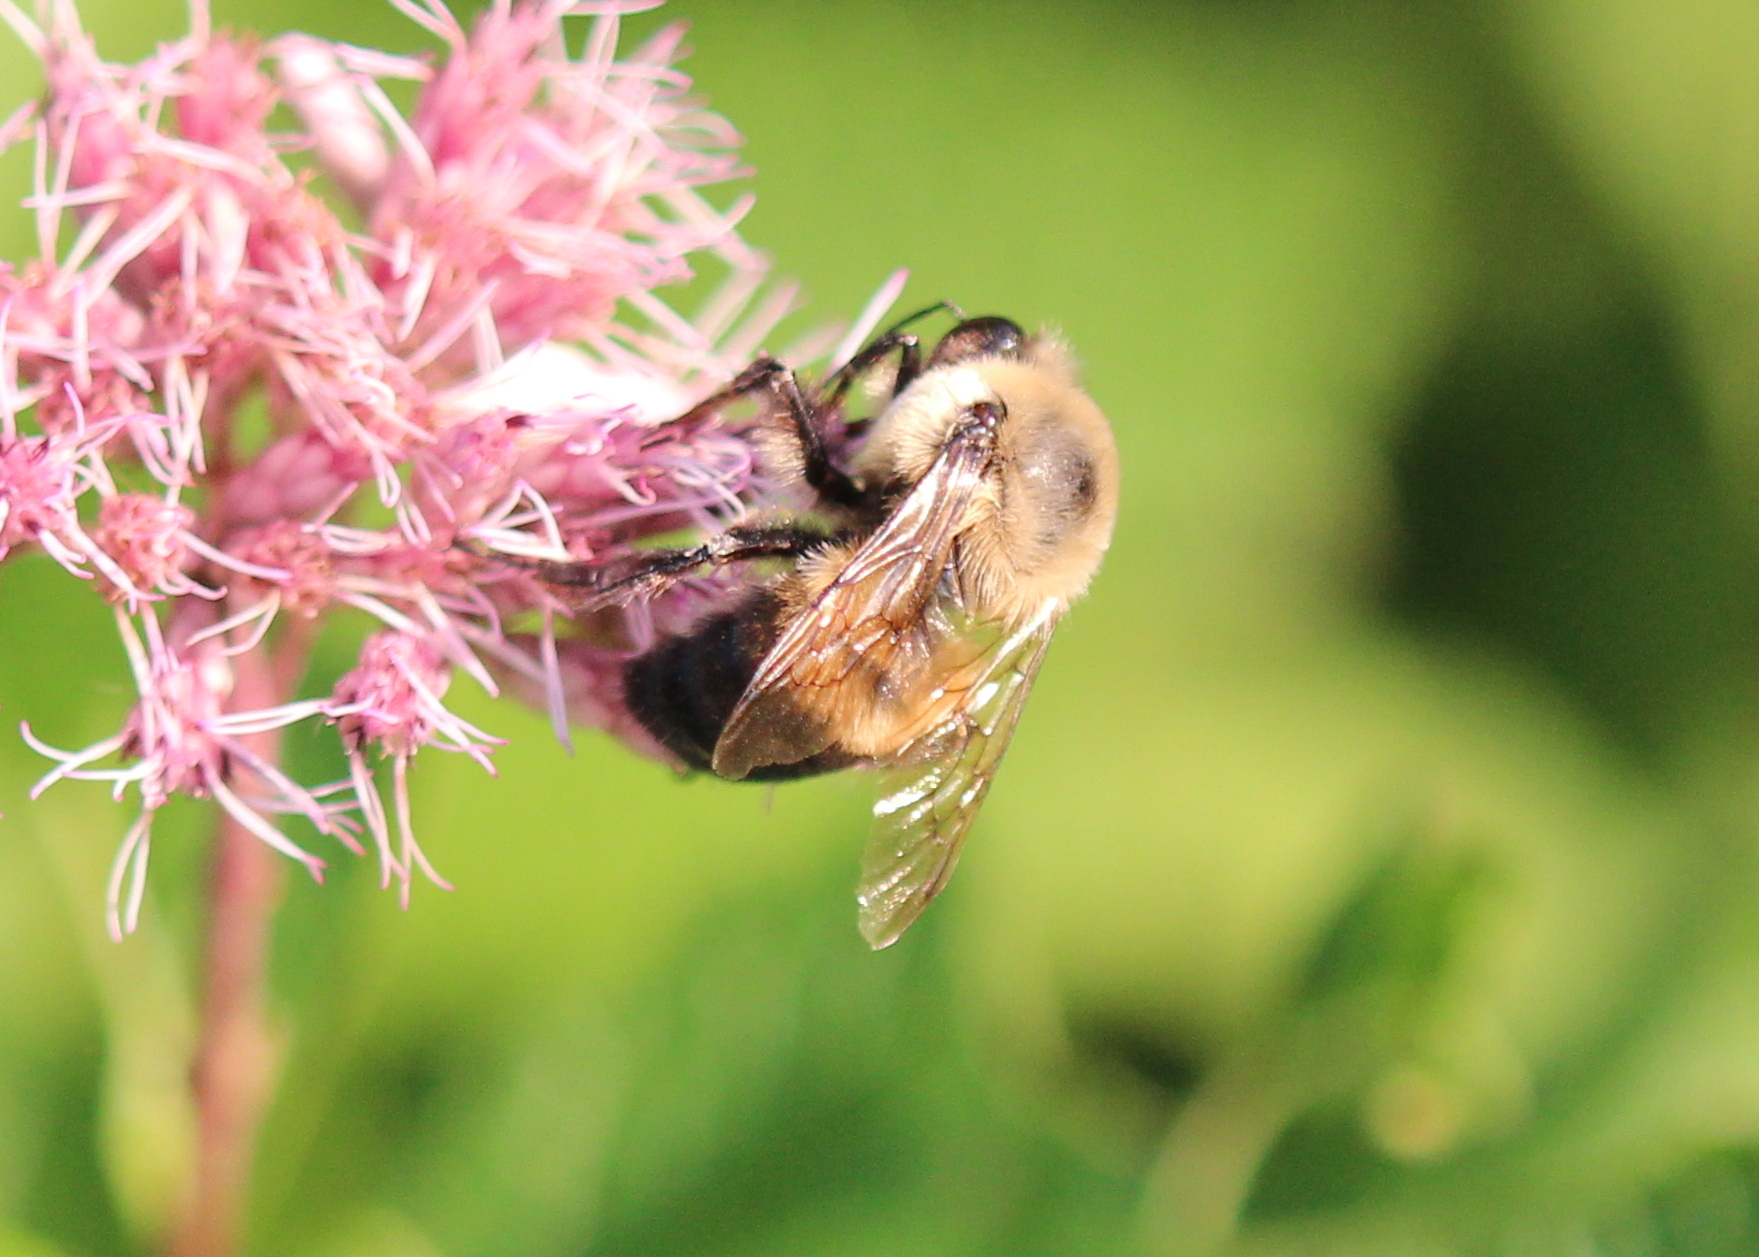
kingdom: Animalia
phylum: Arthropoda
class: Insecta
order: Hymenoptera
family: Apidae
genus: Bombus
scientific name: Bombus griseocollis
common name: Brown-belted bumble bee
